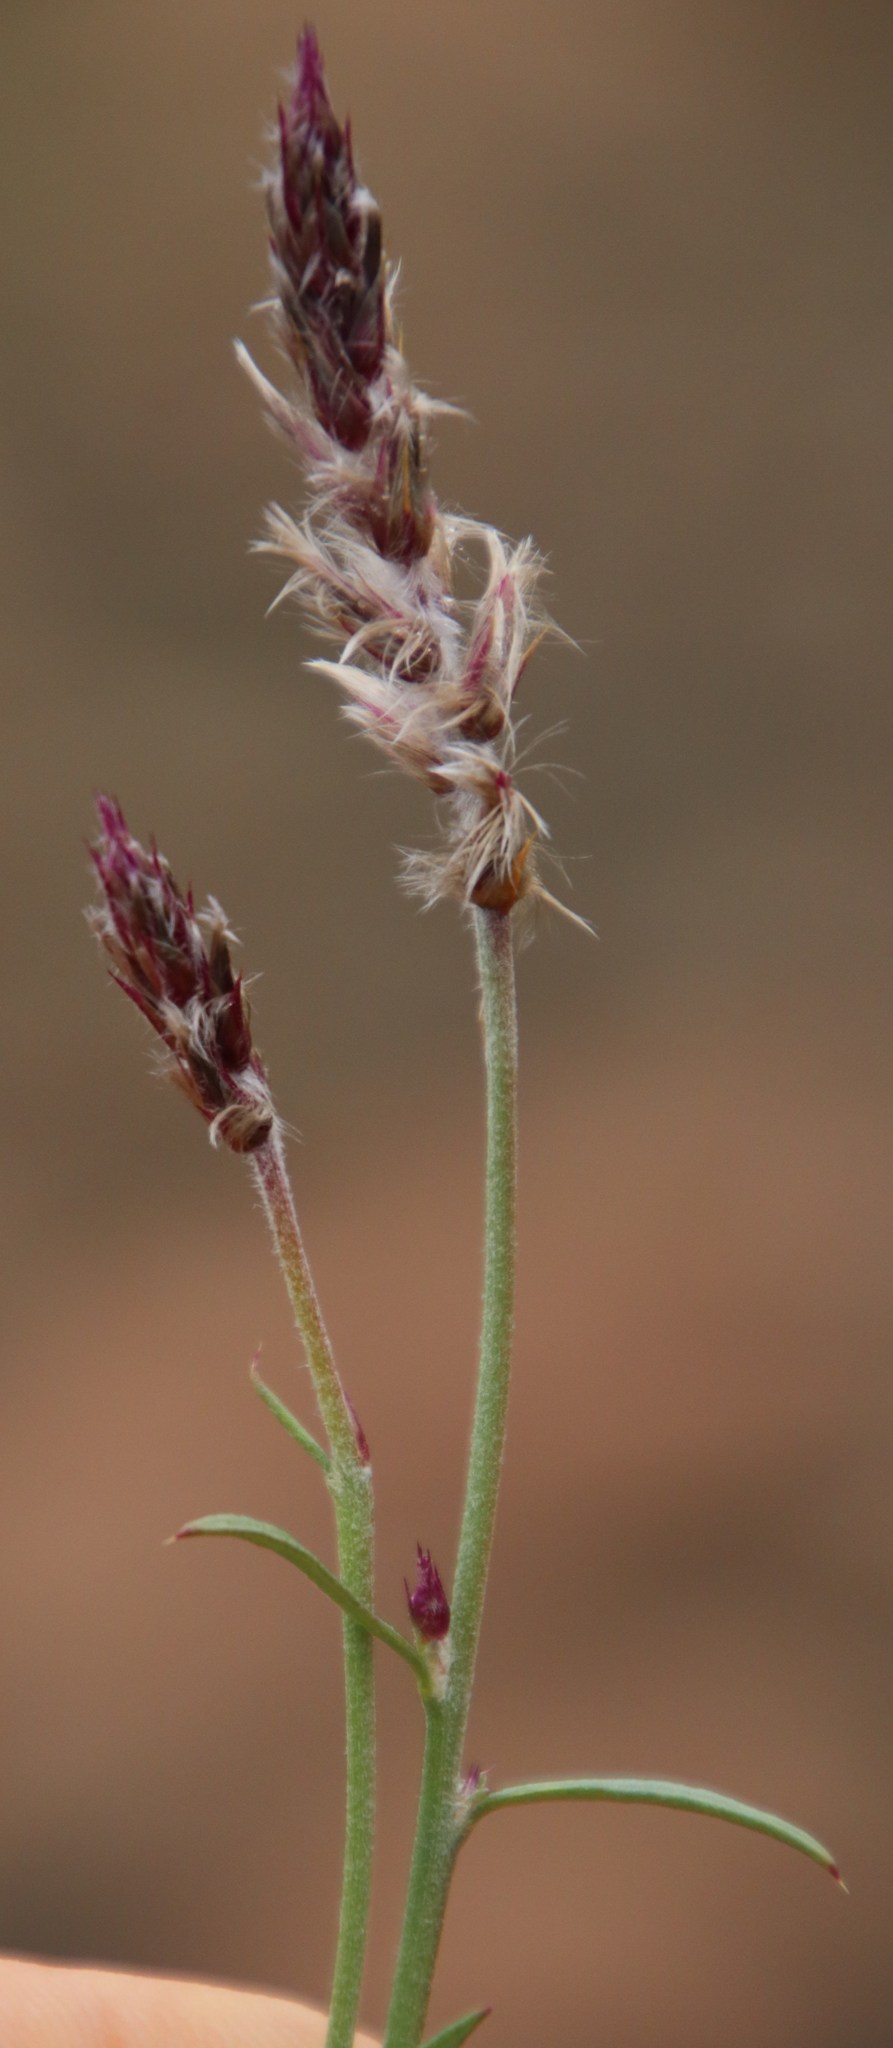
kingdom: Plantae
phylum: Tracheophyta
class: Magnoliopsida
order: Caryophyllales
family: Amaranthaceae
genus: Sericocoma
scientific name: Sericocoma avolans
